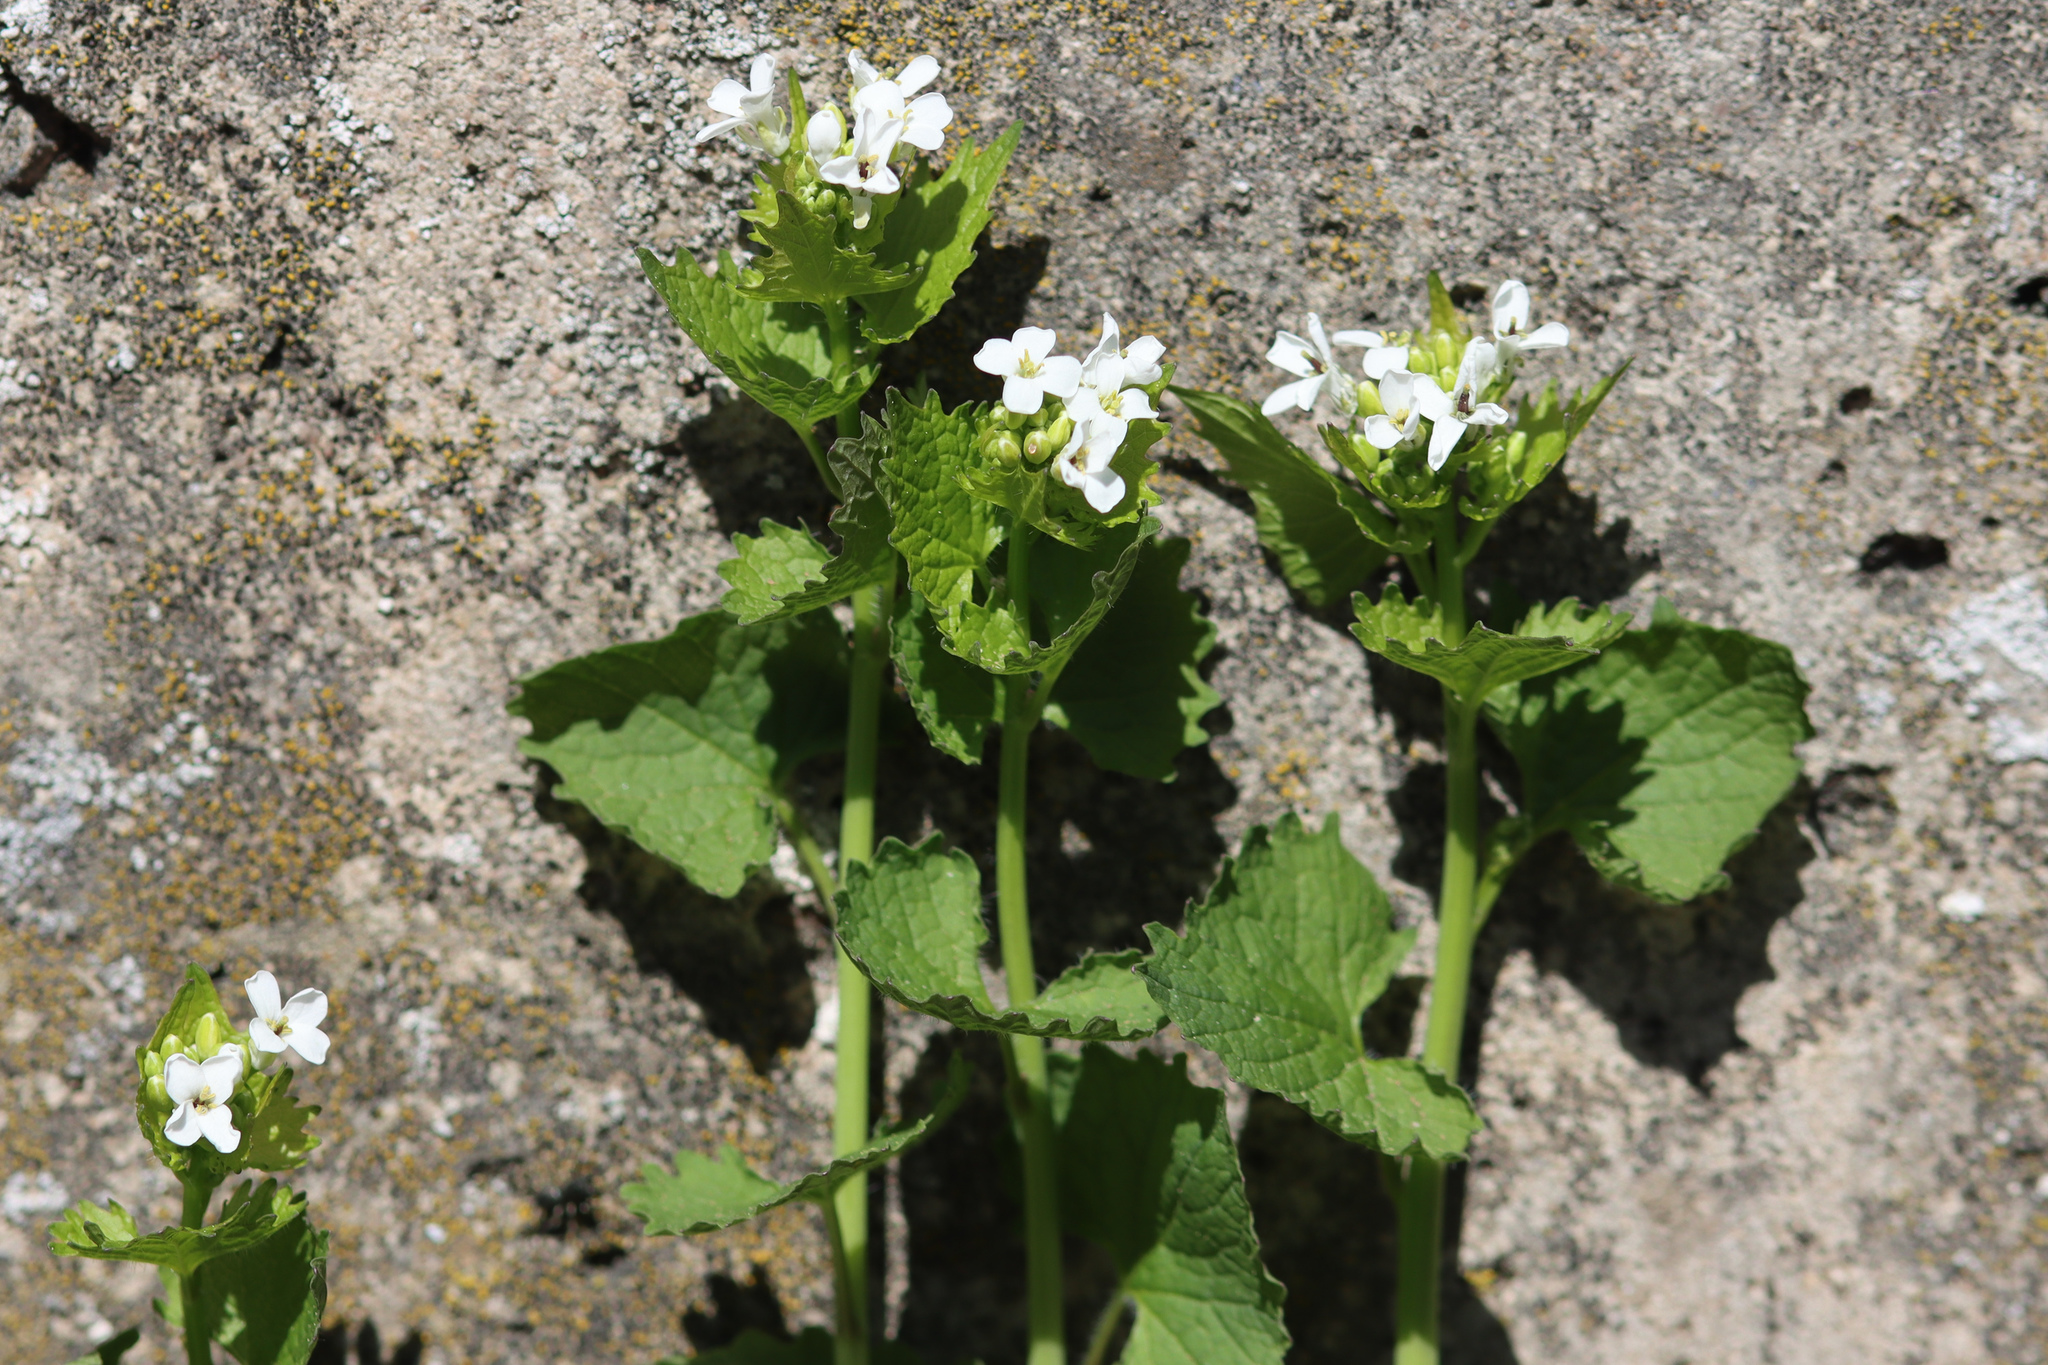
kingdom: Plantae
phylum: Tracheophyta
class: Magnoliopsida
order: Brassicales
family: Brassicaceae
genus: Alliaria
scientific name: Alliaria petiolata
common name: Garlic mustard
